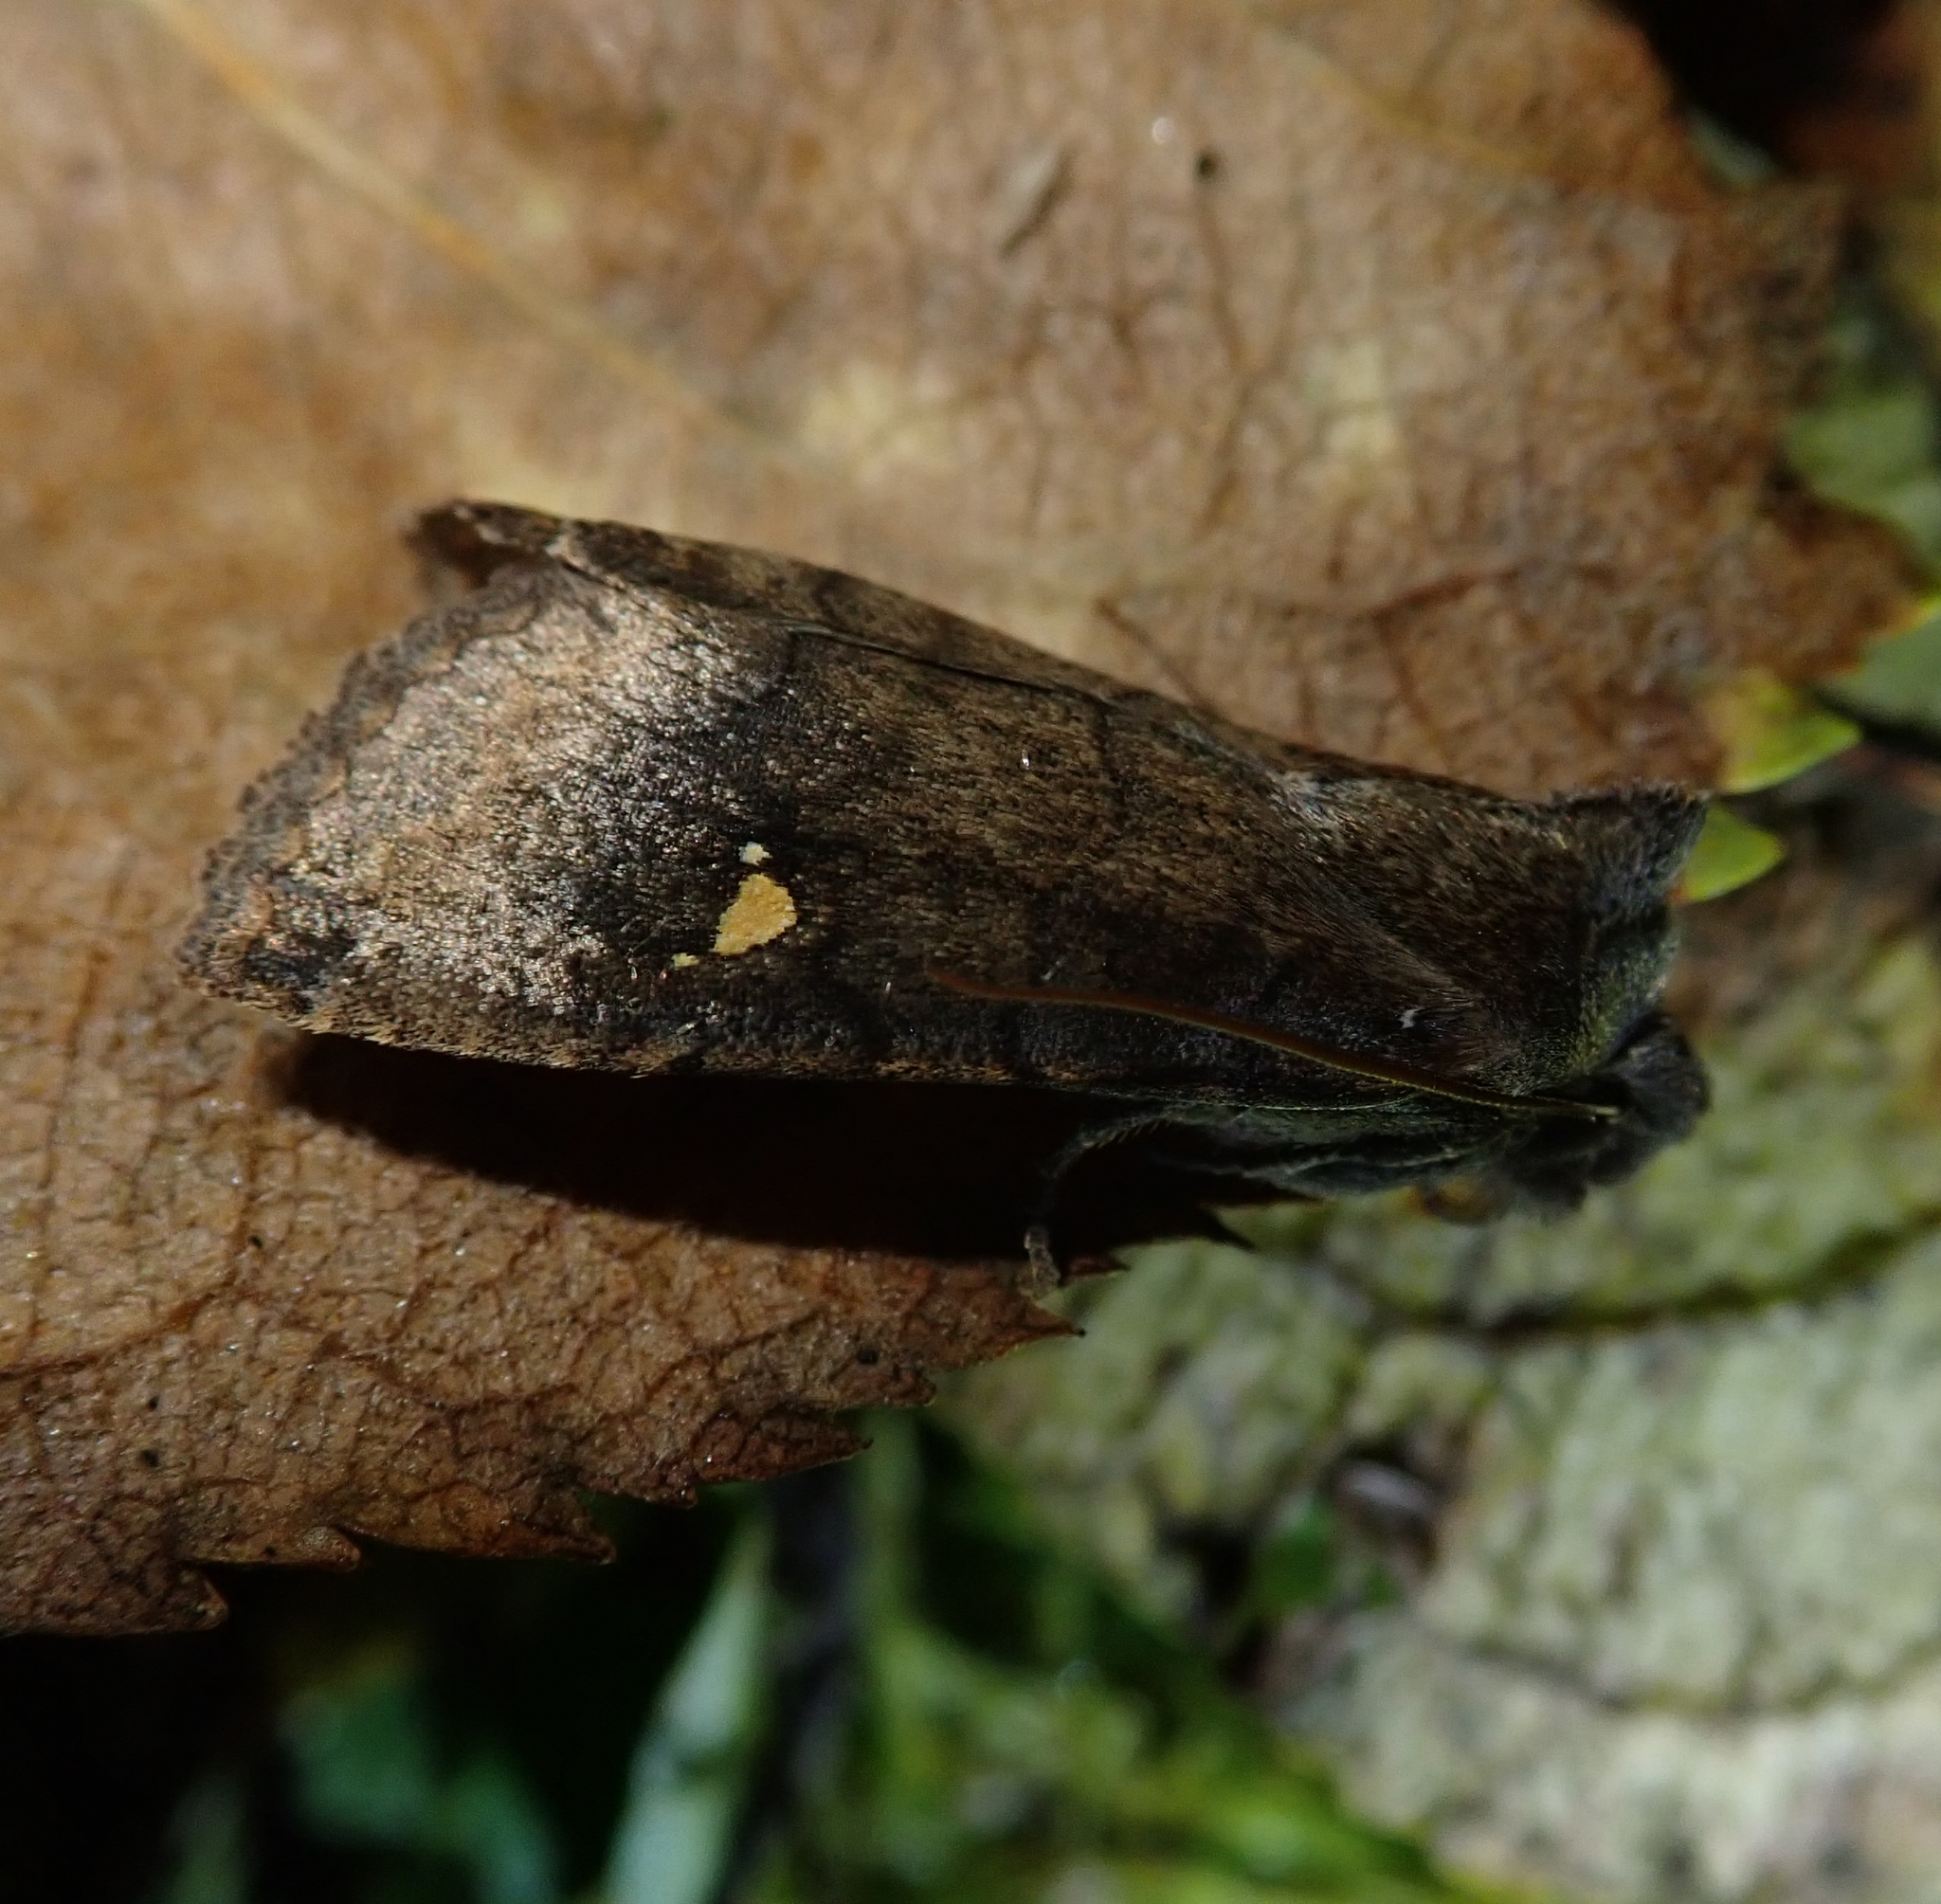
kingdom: Animalia
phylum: Arthropoda
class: Insecta
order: Lepidoptera
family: Noctuidae
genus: Eupsilia
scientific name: Eupsilia transversa
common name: Satellite
